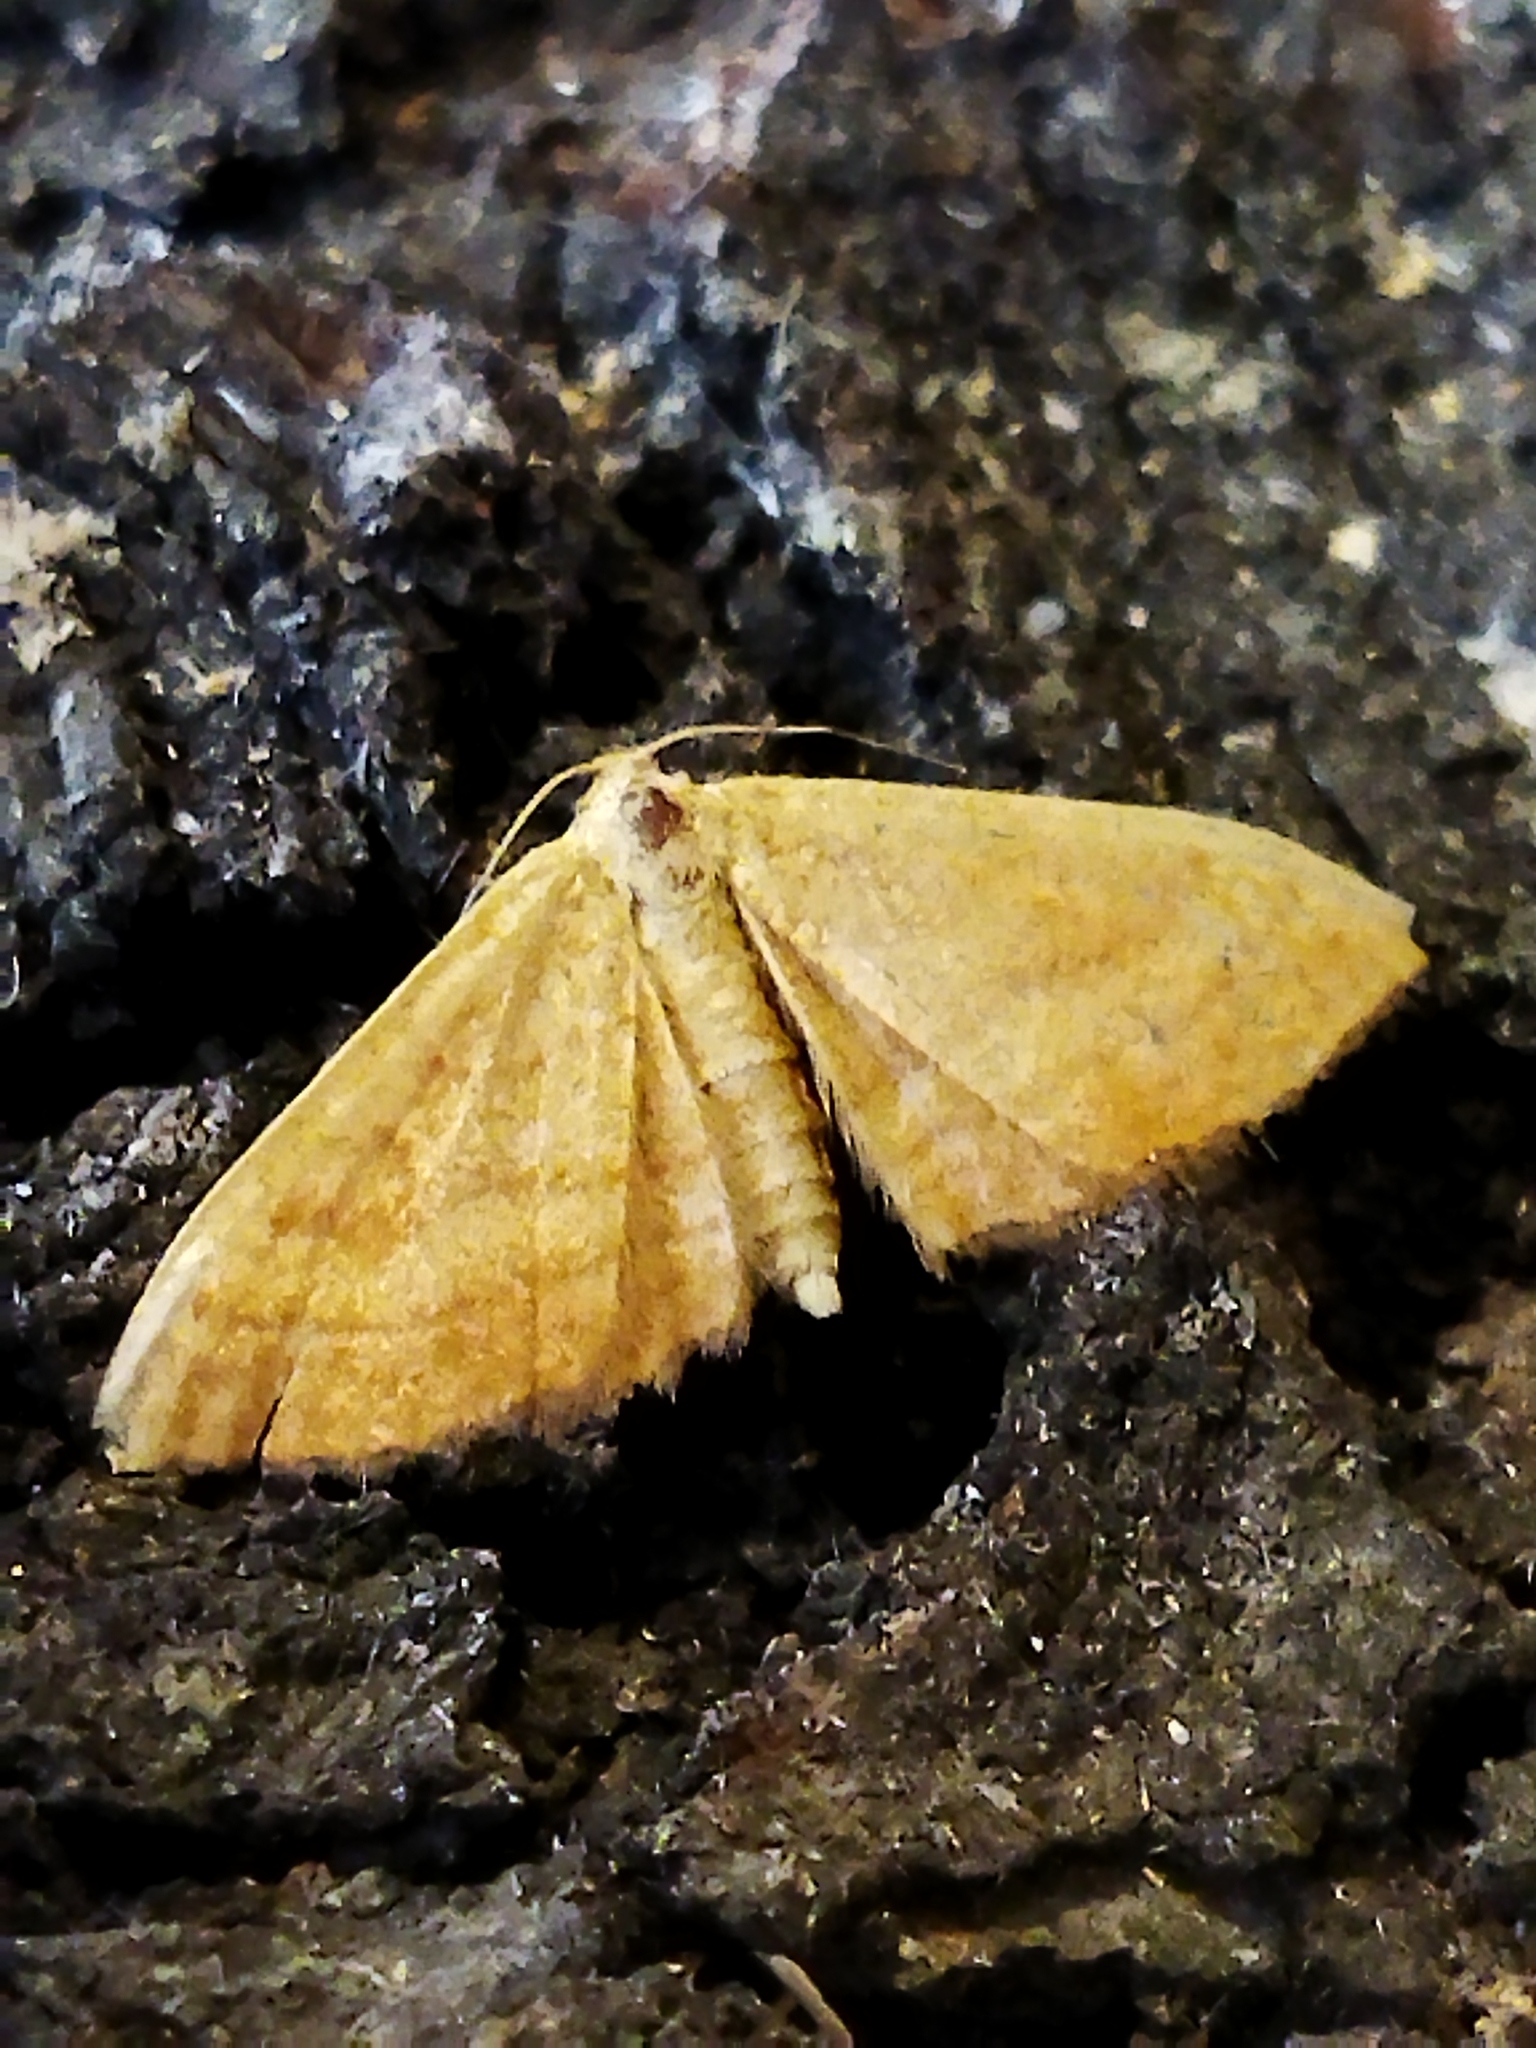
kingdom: Animalia
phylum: Arthropoda
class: Insecta
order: Lepidoptera
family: Geometridae
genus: Idaea
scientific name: Idaea ochrata
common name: Bright wave
